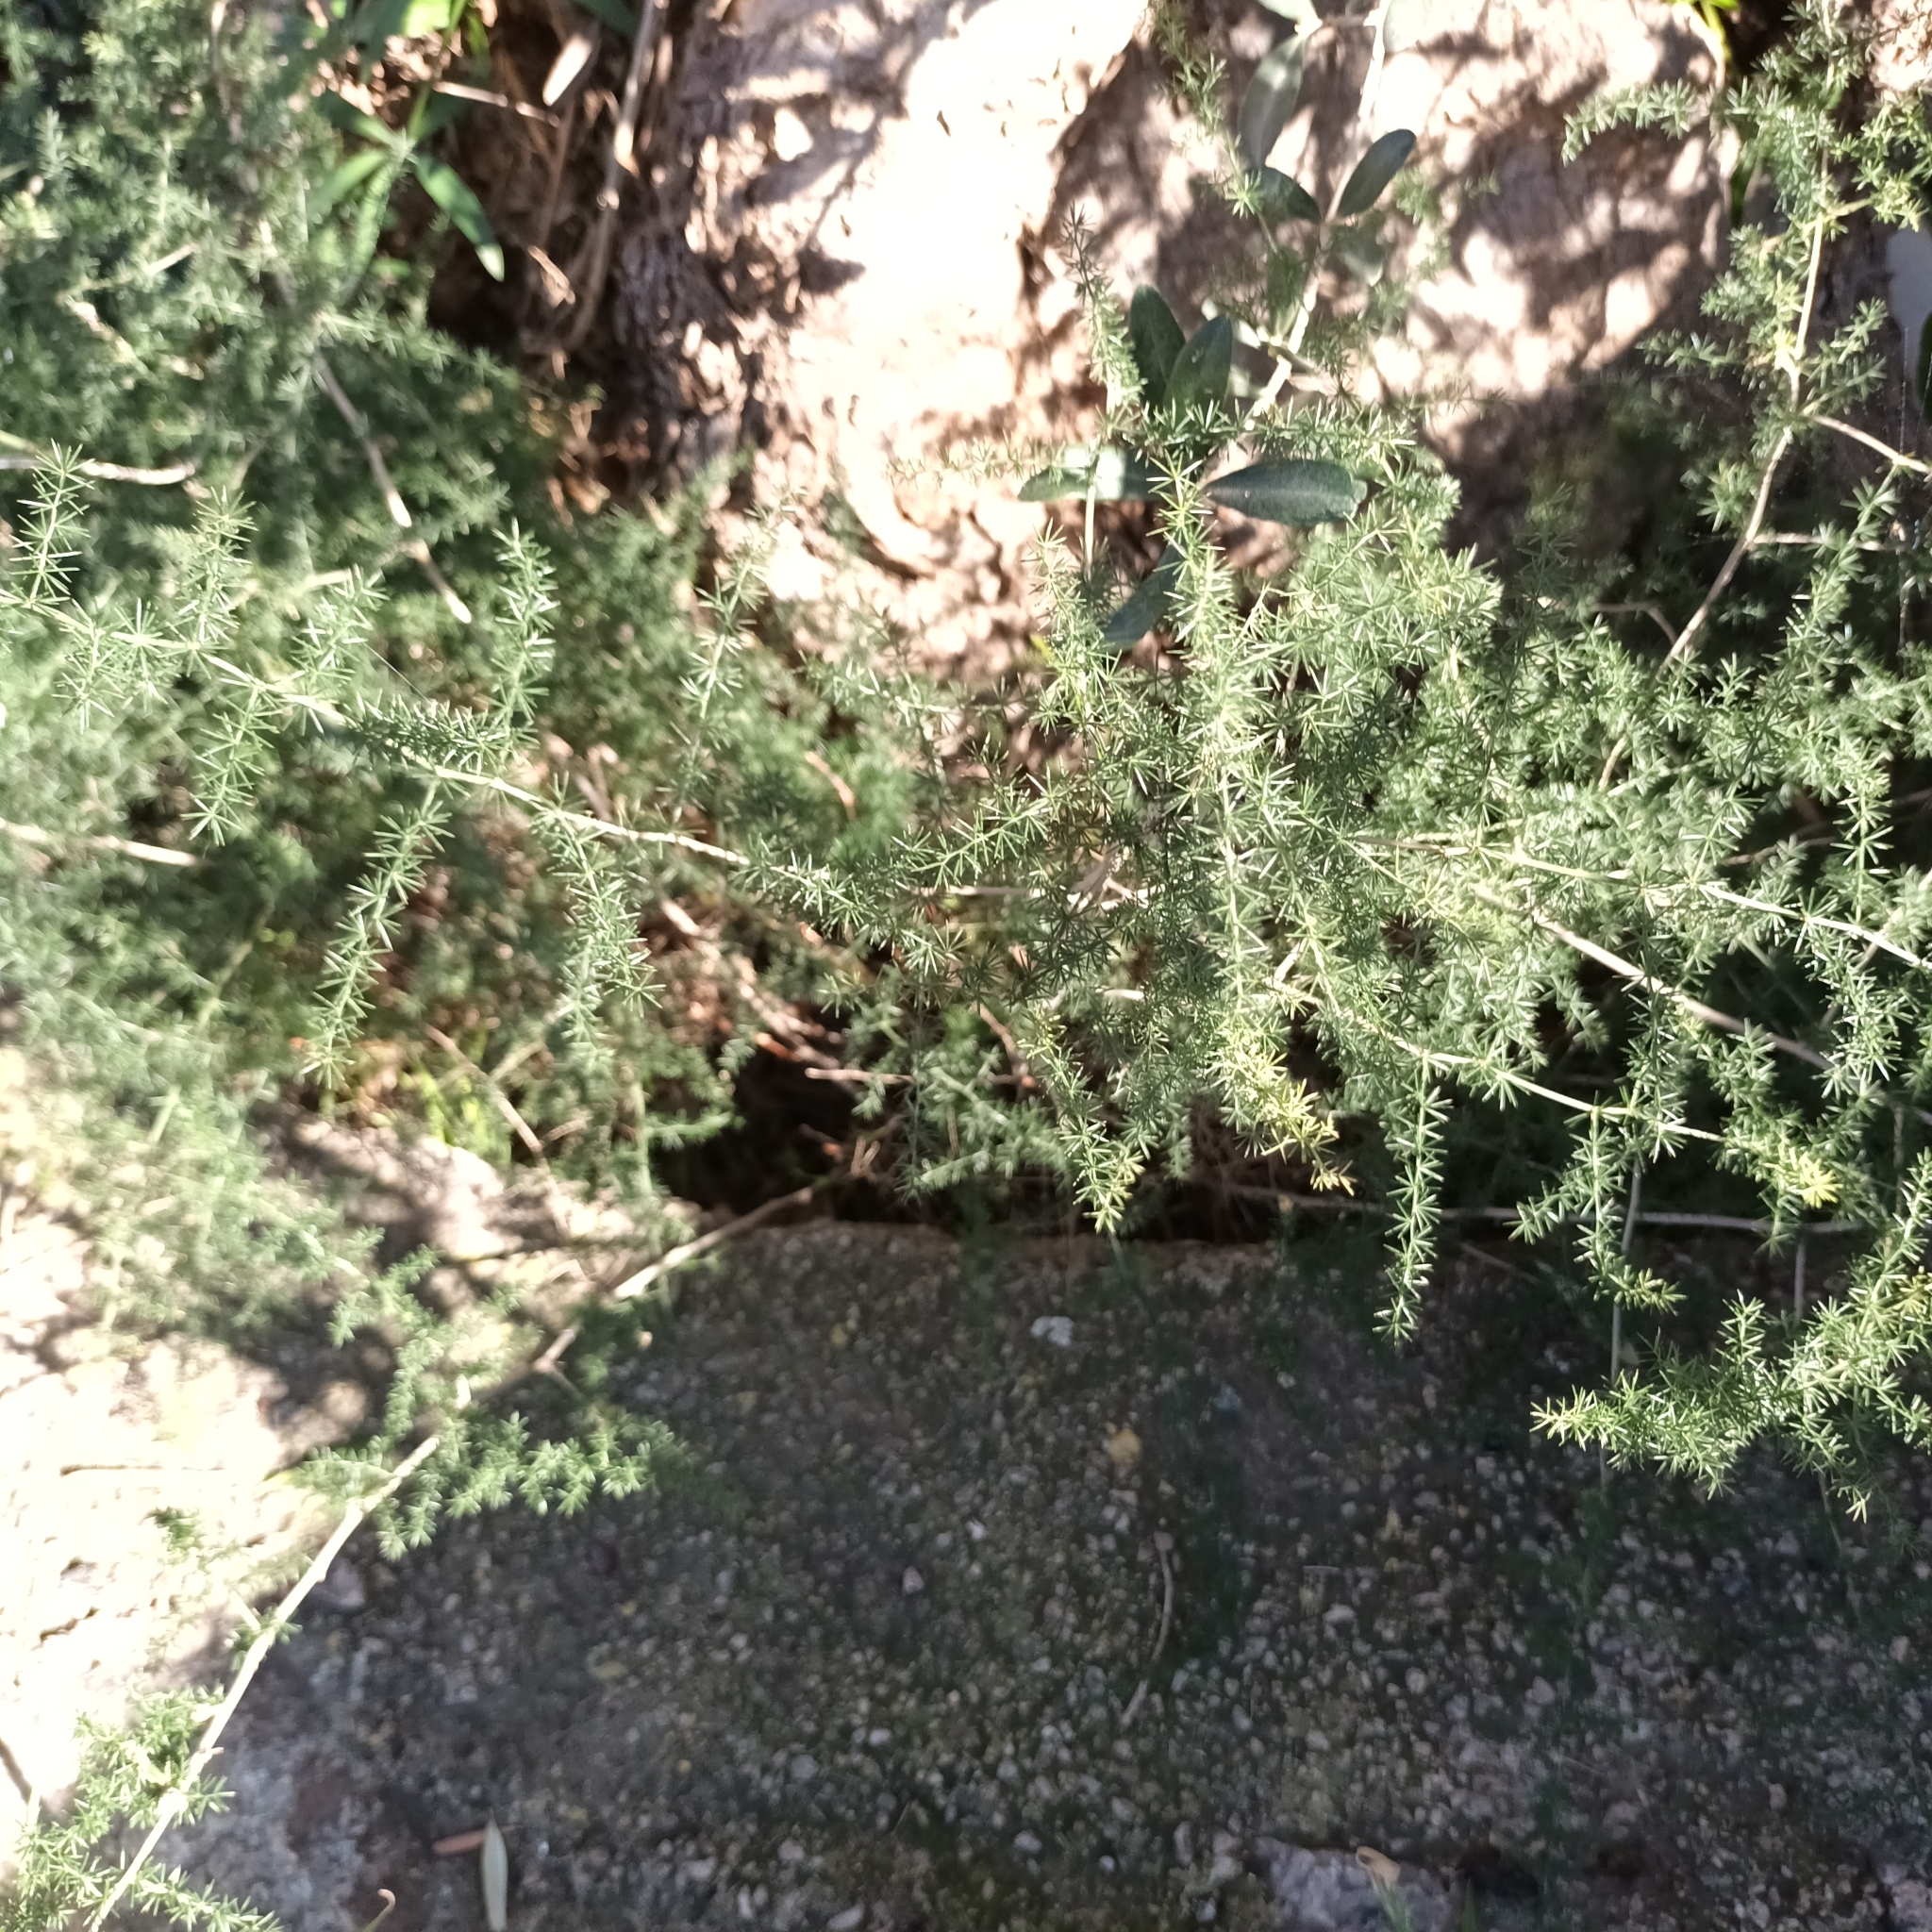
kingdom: Plantae
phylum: Tracheophyta
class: Liliopsida
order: Asparagales
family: Asparagaceae
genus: Asparagus
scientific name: Asparagus acutifolius
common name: Wild asparagus
